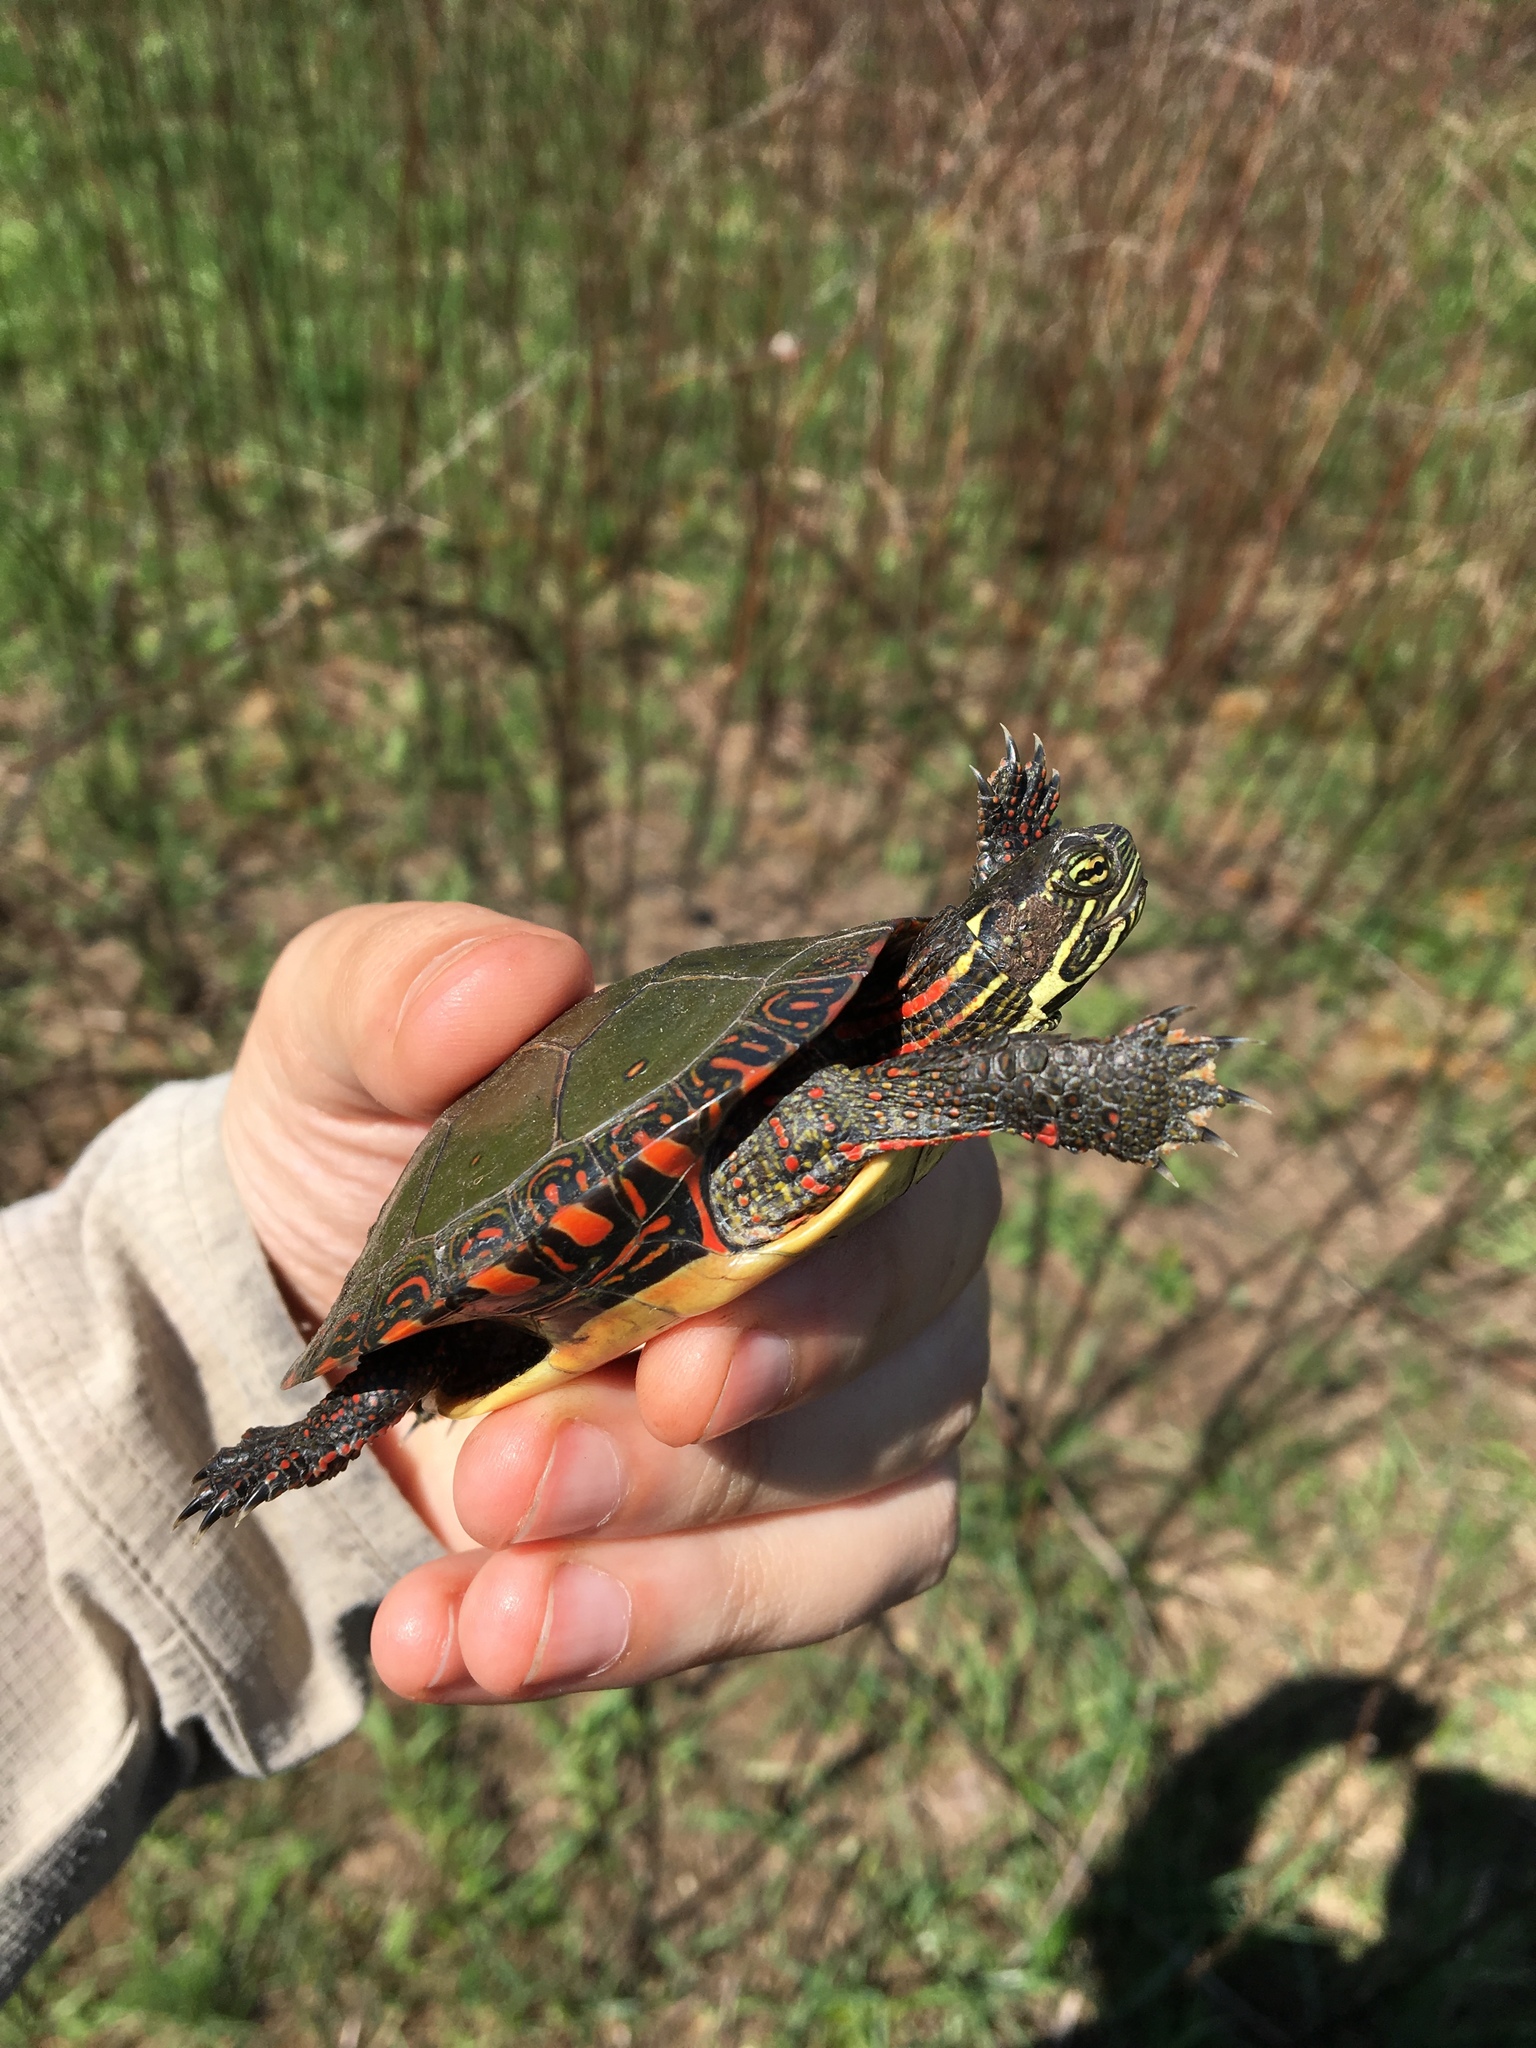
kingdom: Animalia
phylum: Chordata
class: Testudines
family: Emydidae
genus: Chrysemys
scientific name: Chrysemys picta
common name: Painted turtle
